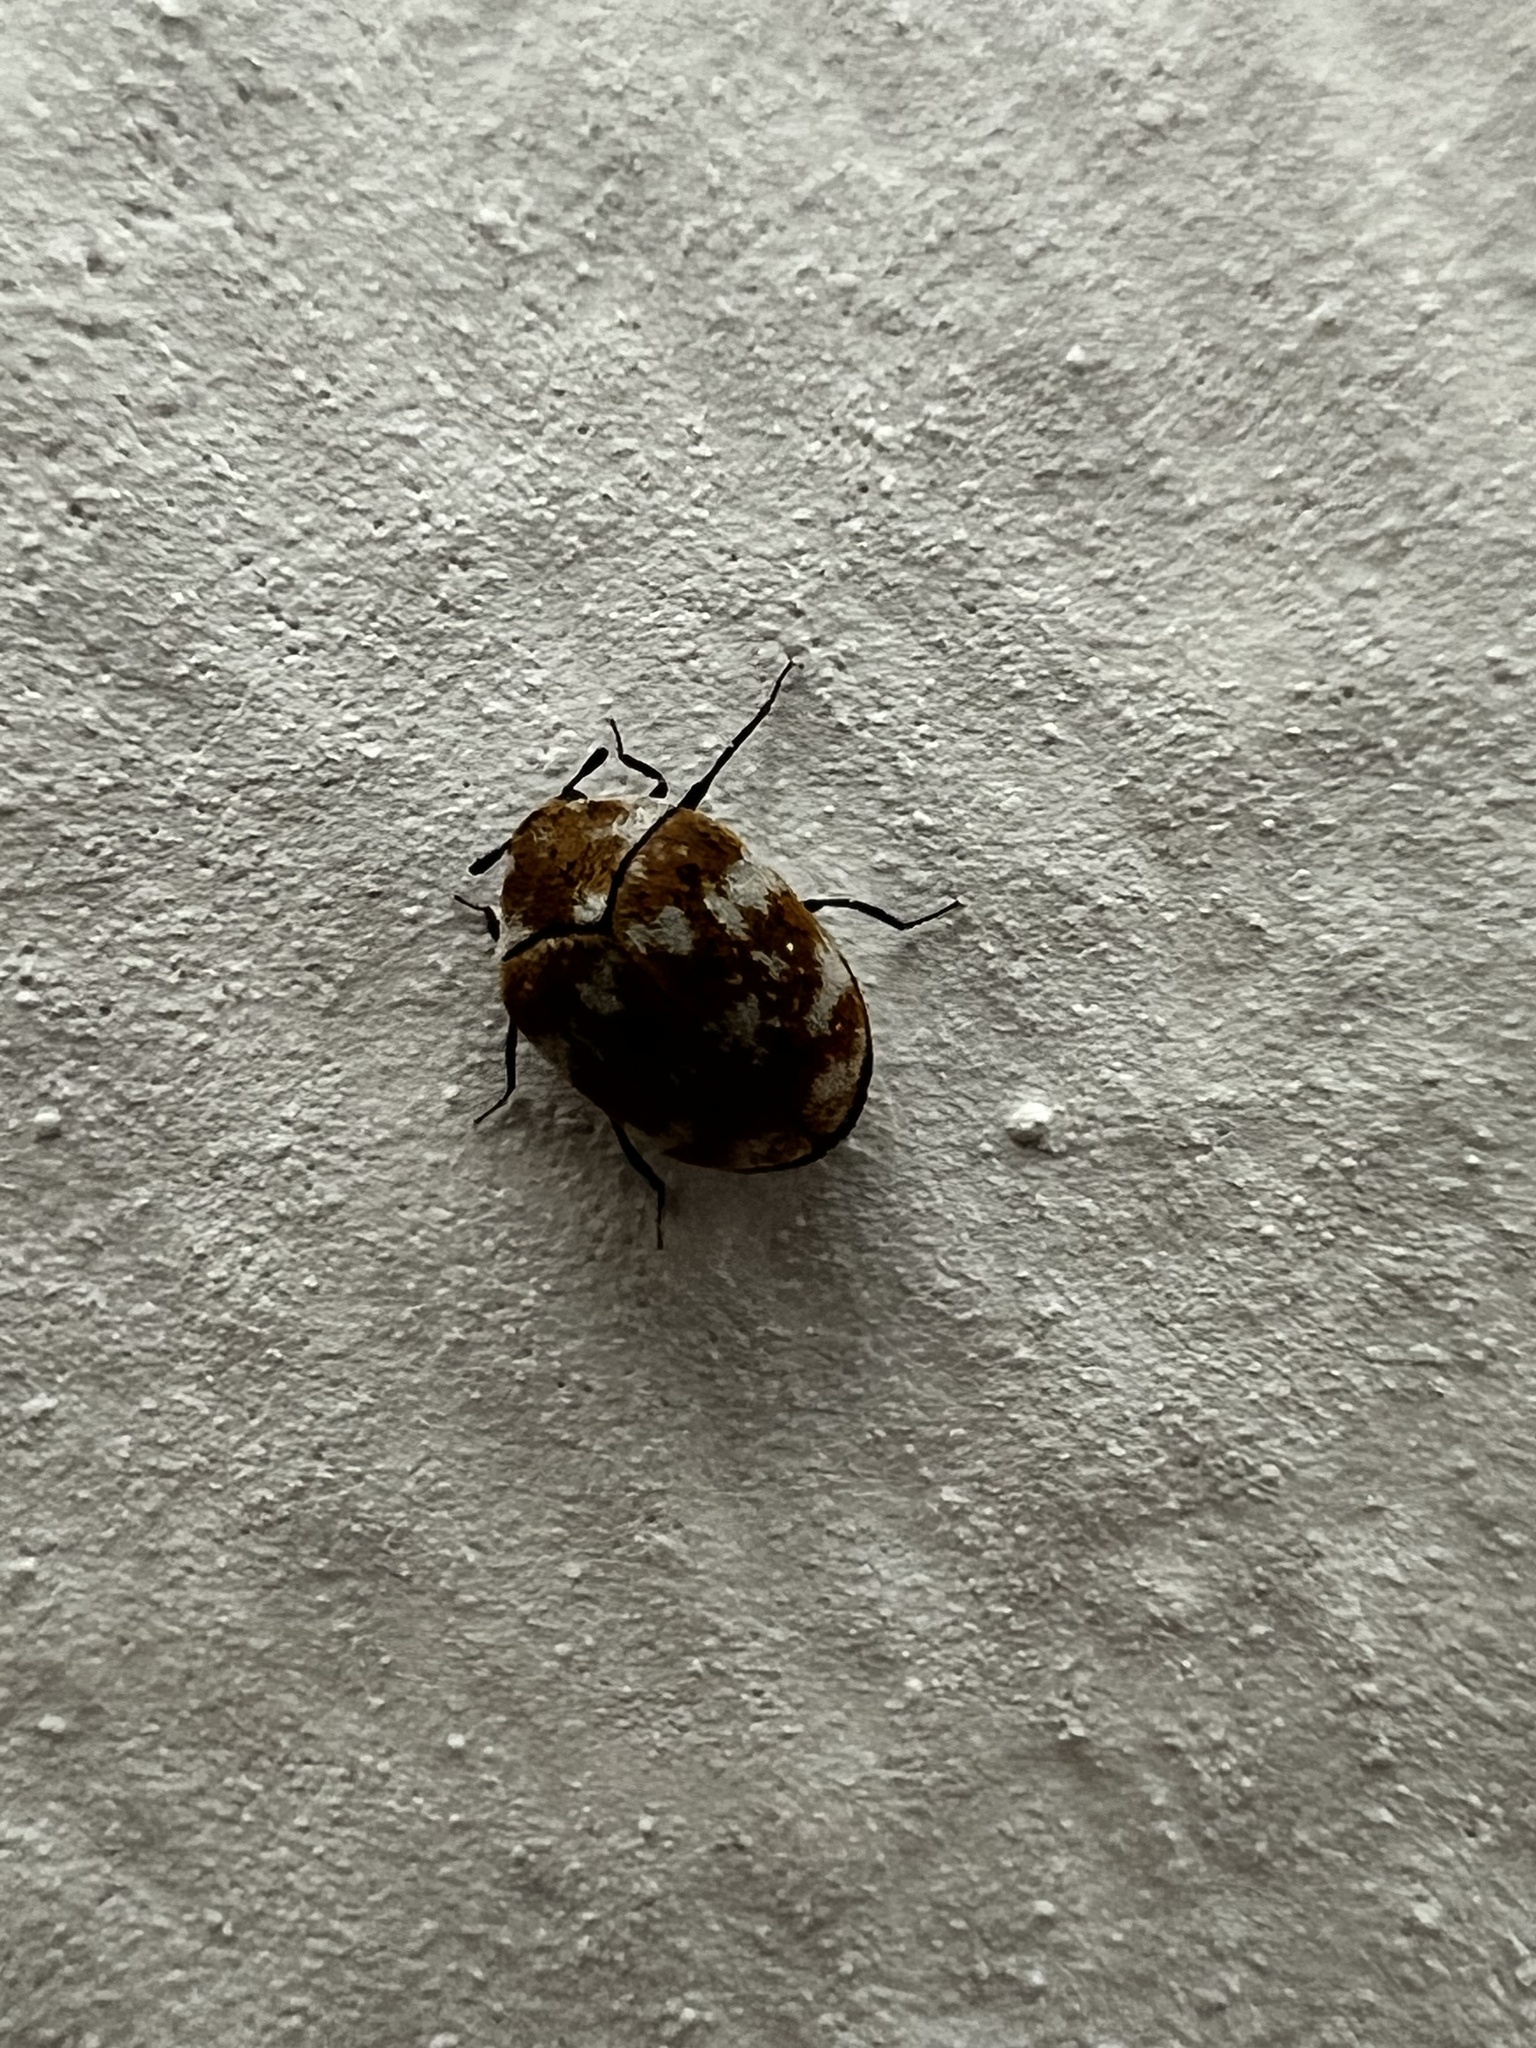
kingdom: Animalia
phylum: Arthropoda
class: Insecta
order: Coleoptera
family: Dermestidae
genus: Anthrenus
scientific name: Anthrenus verbasci
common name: Varied carpet beetle
